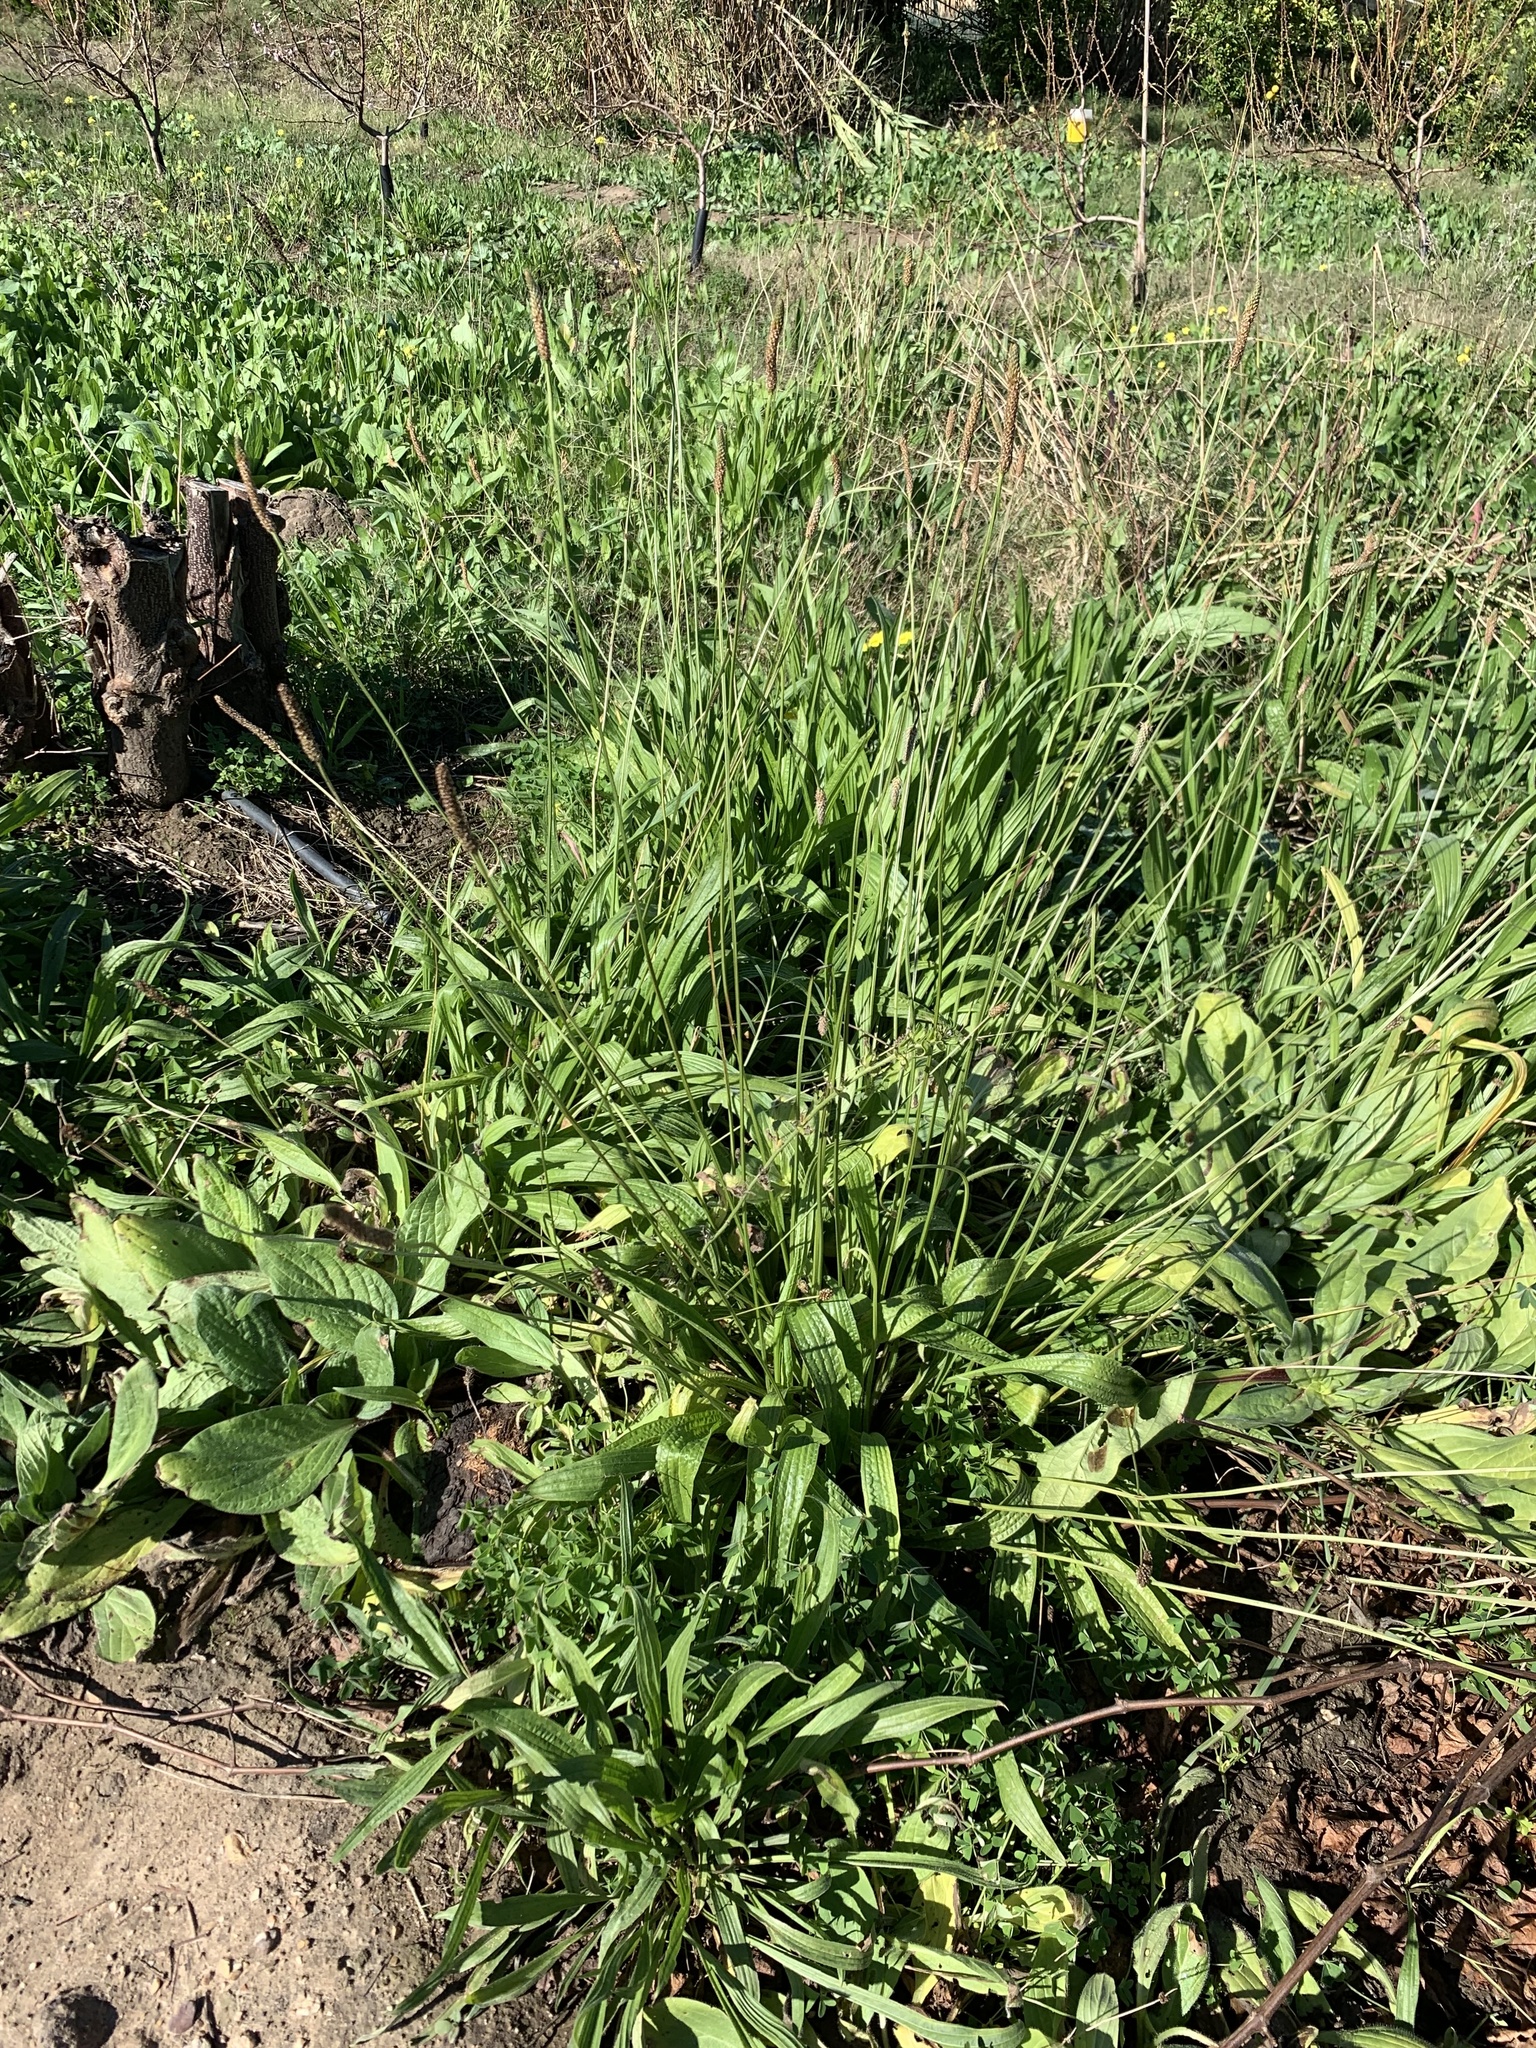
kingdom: Plantae
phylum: Tracheophyta
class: Magnoliopsida
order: Lamiales
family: Plantaginaceae
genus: Plantago
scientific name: Plantago lanceolata
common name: Ribwort plantain
